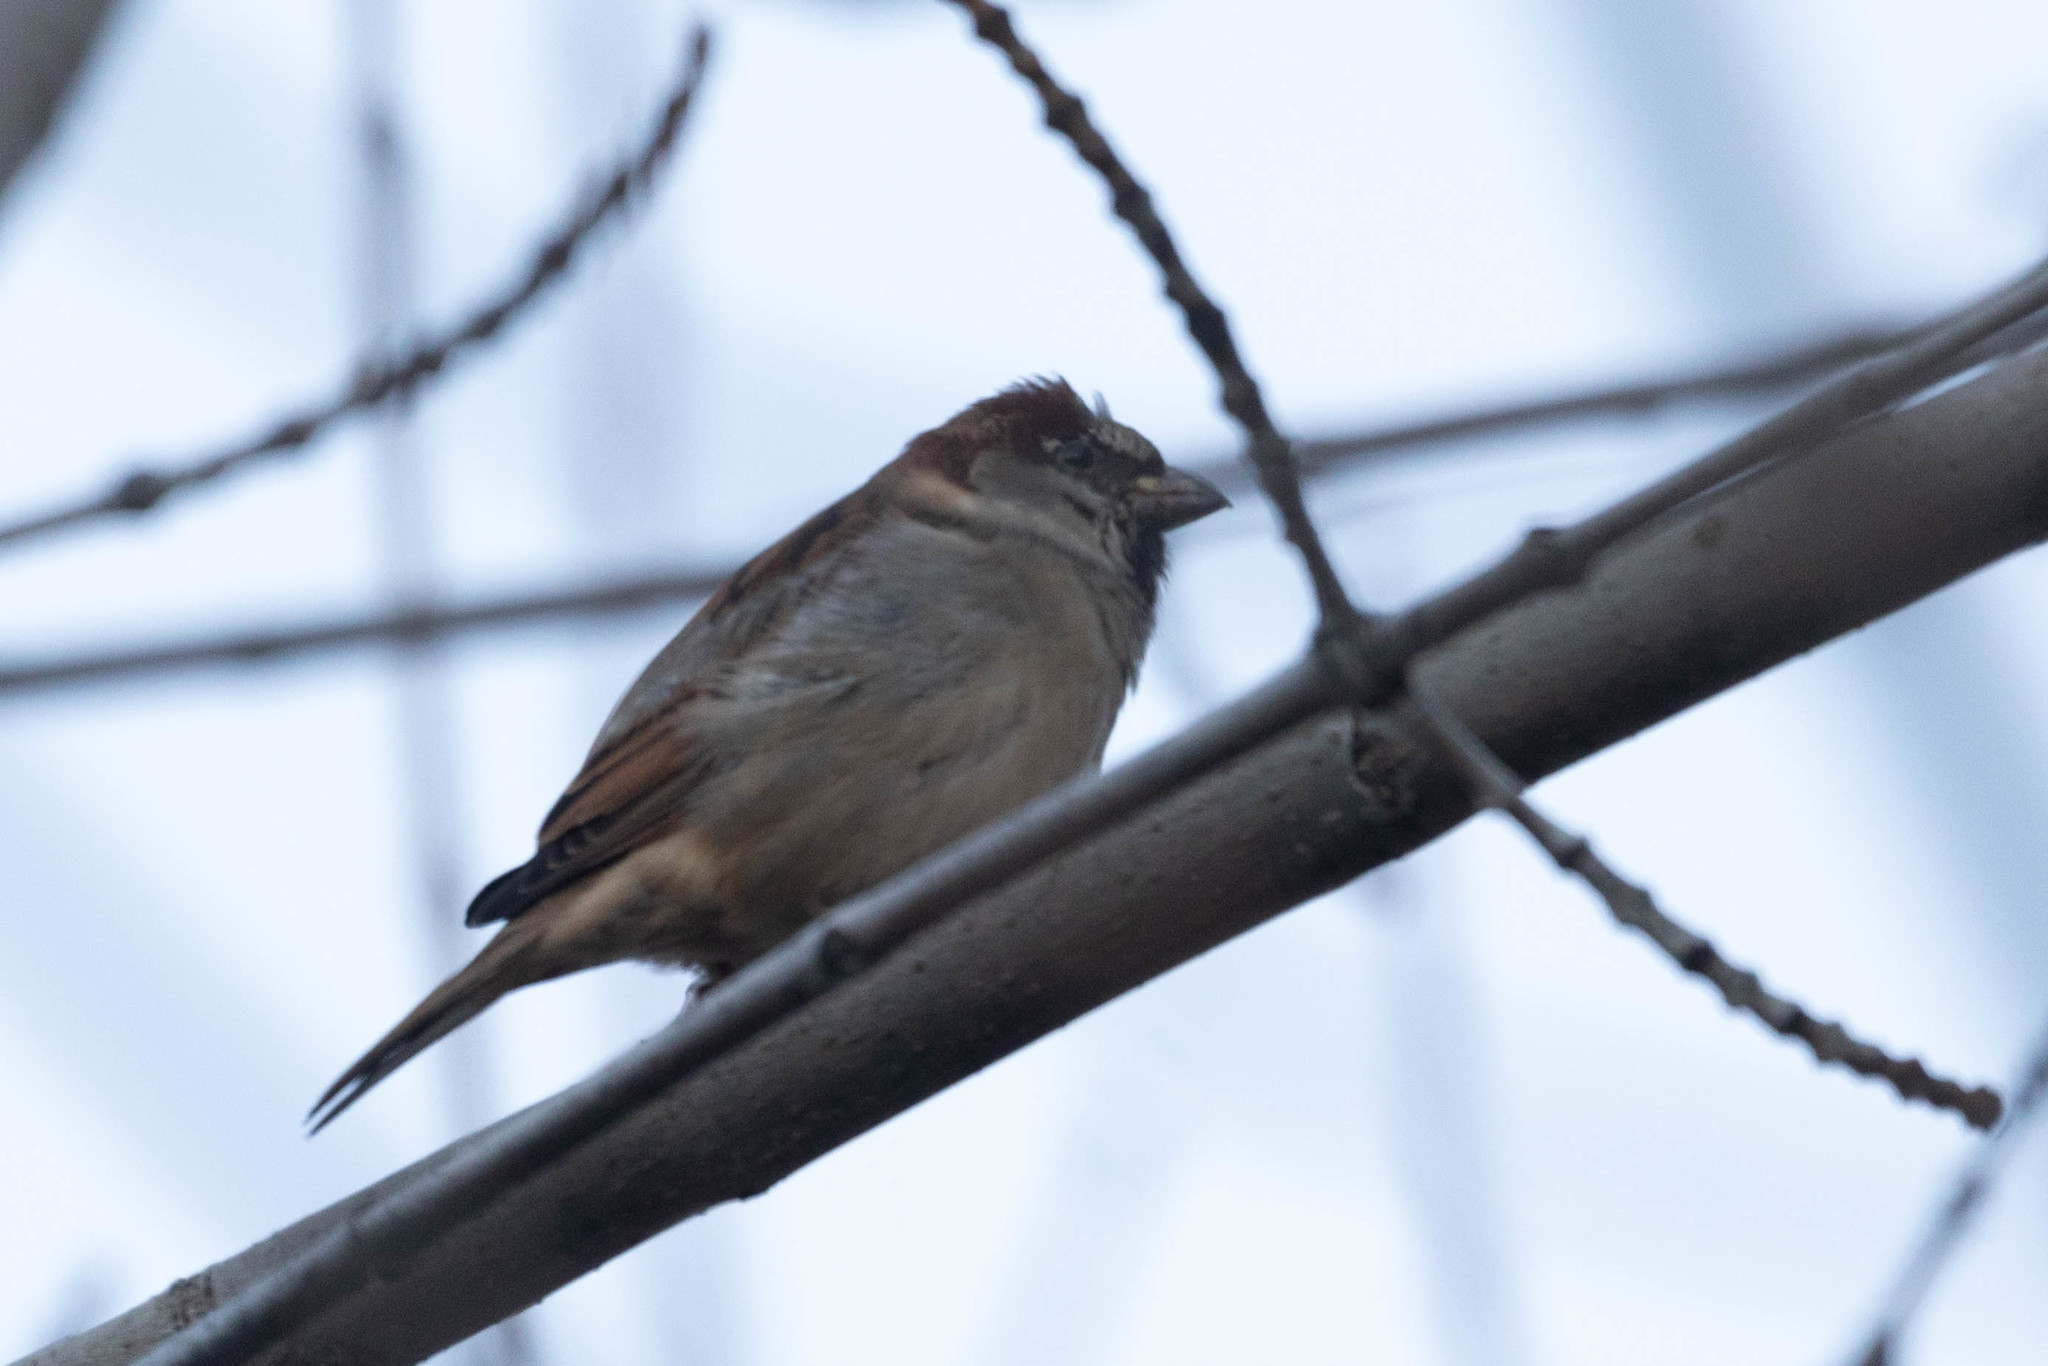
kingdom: Animalia
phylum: Chordata
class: Aves
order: Passeriformes
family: Passeridae
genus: Passer
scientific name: Passer domesticus
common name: House sparrow
